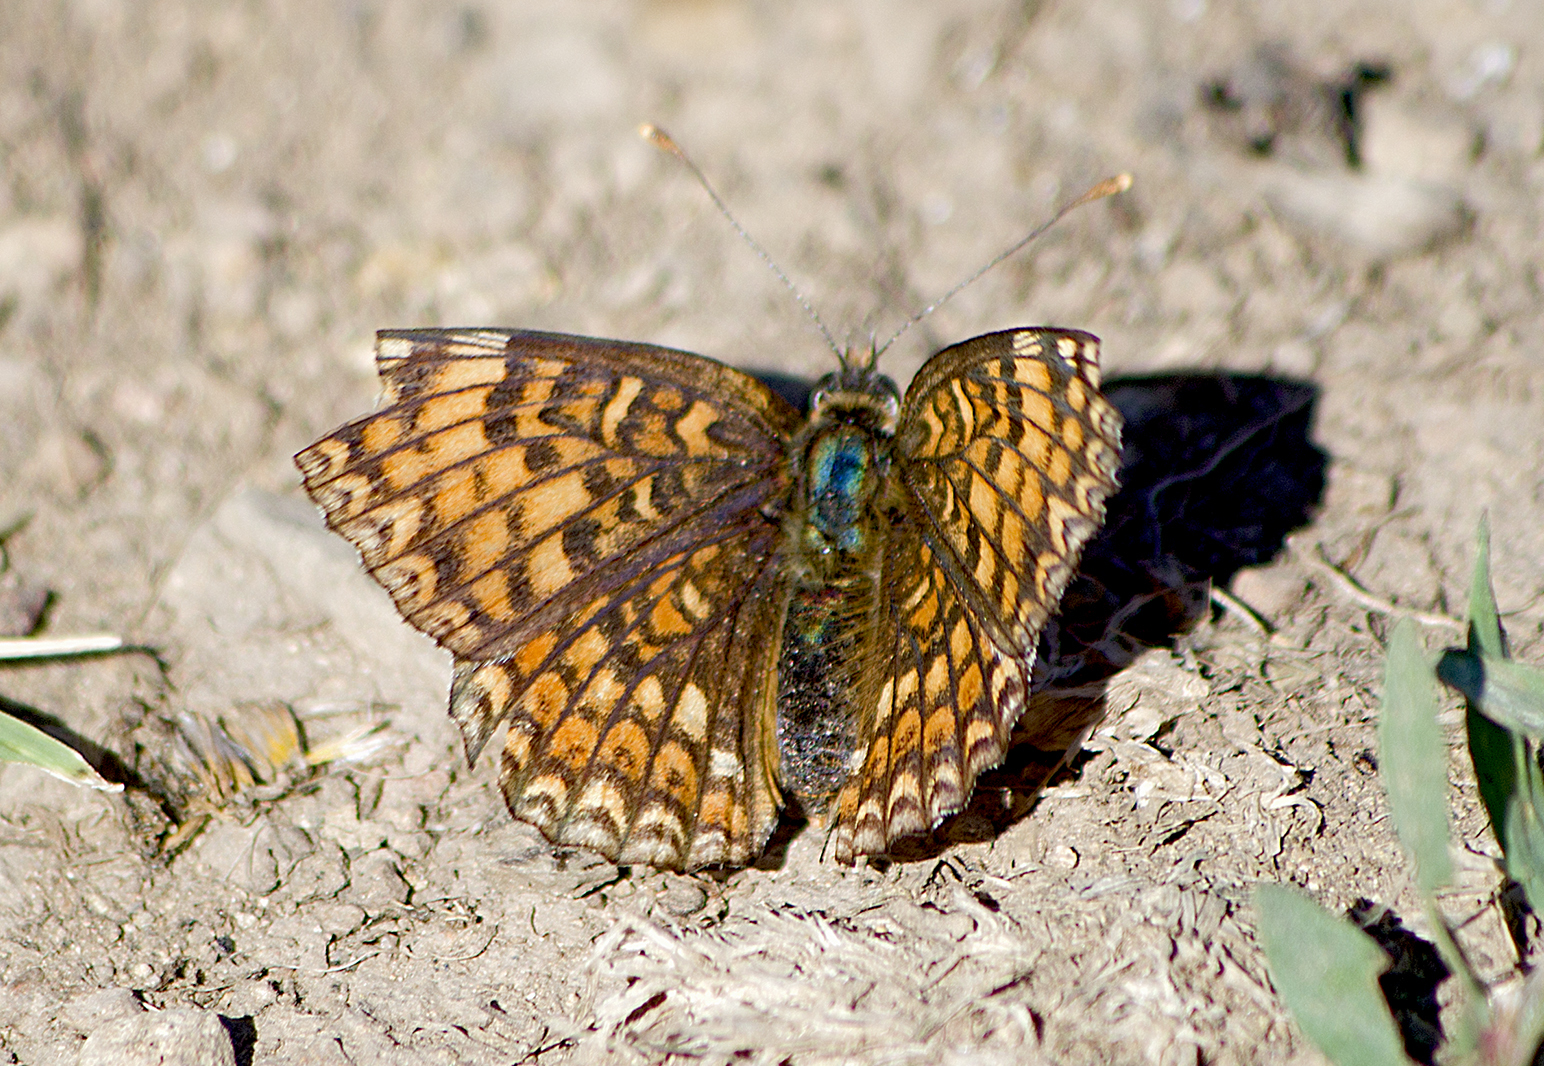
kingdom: Animalia
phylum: Arthropoda
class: Insecta
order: Lepidoptera
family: Nymphalidae
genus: Melitaea
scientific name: Melitaea phoebe
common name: Knapweed fritillary
